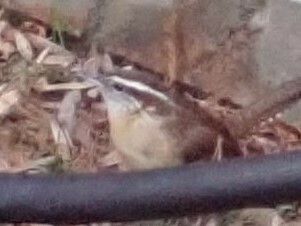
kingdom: Animalia
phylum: Chordata
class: Aves
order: Passeriformes
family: Troglodytidae
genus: Thryothorus
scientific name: Thryothorus ludovicianus
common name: Carolina wren
